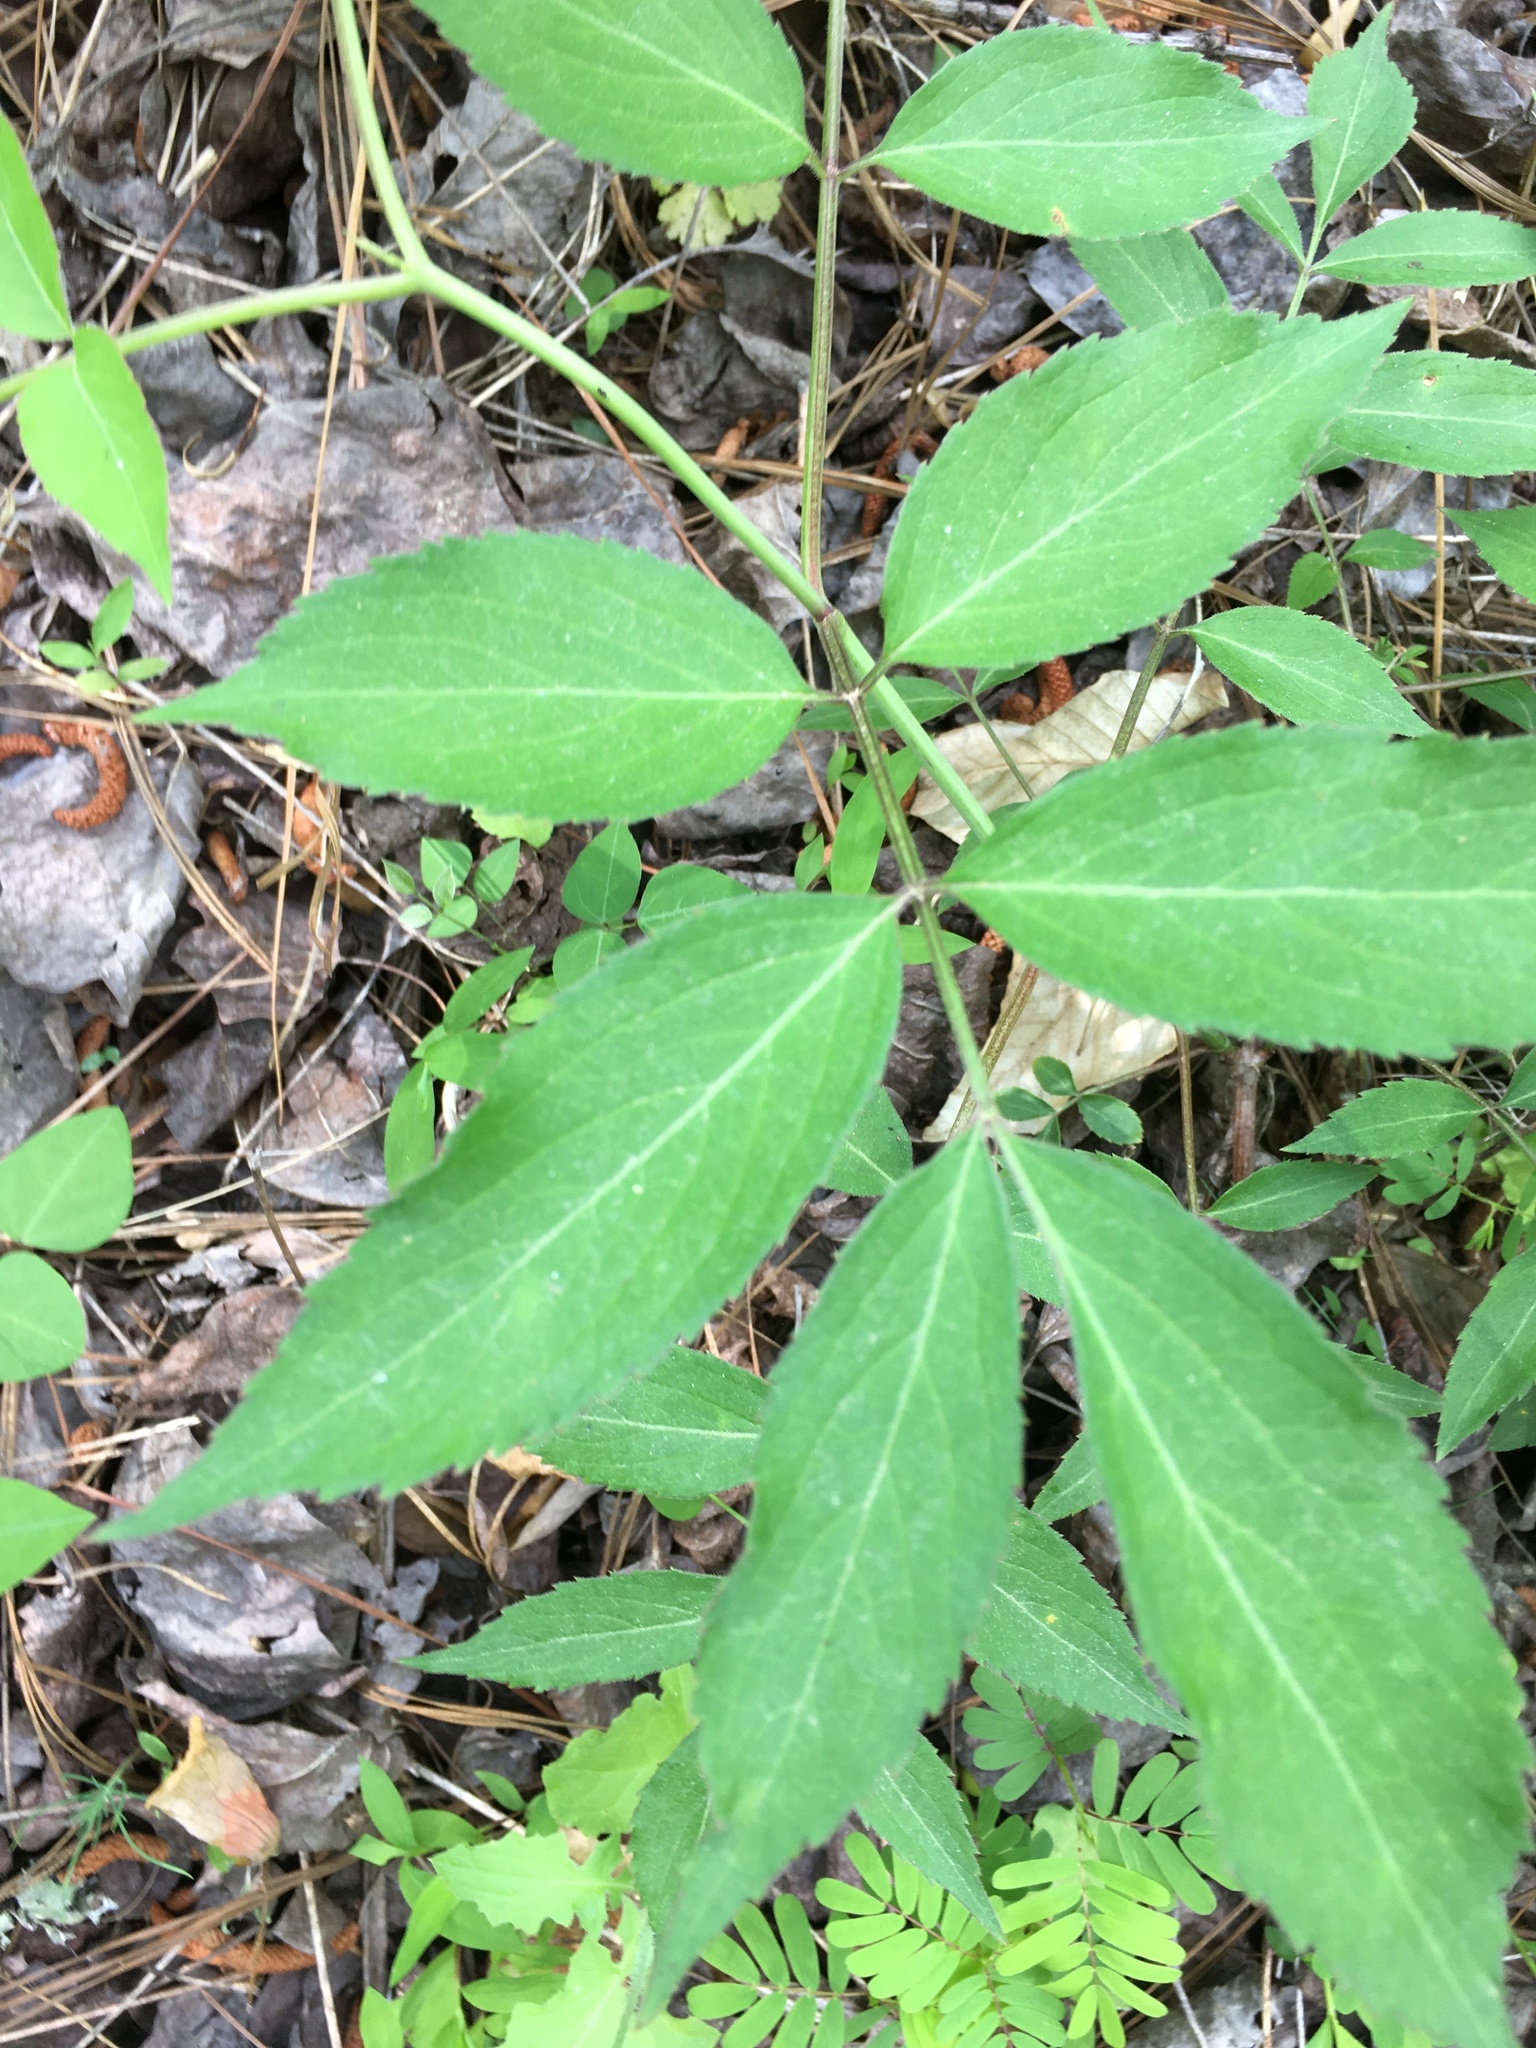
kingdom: Plantae
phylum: Tracheophyta
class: Magnoliopsida
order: Dipsacales
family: Viburnaceae
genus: Sambucus
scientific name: Sambucus canadensis
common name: American elder
